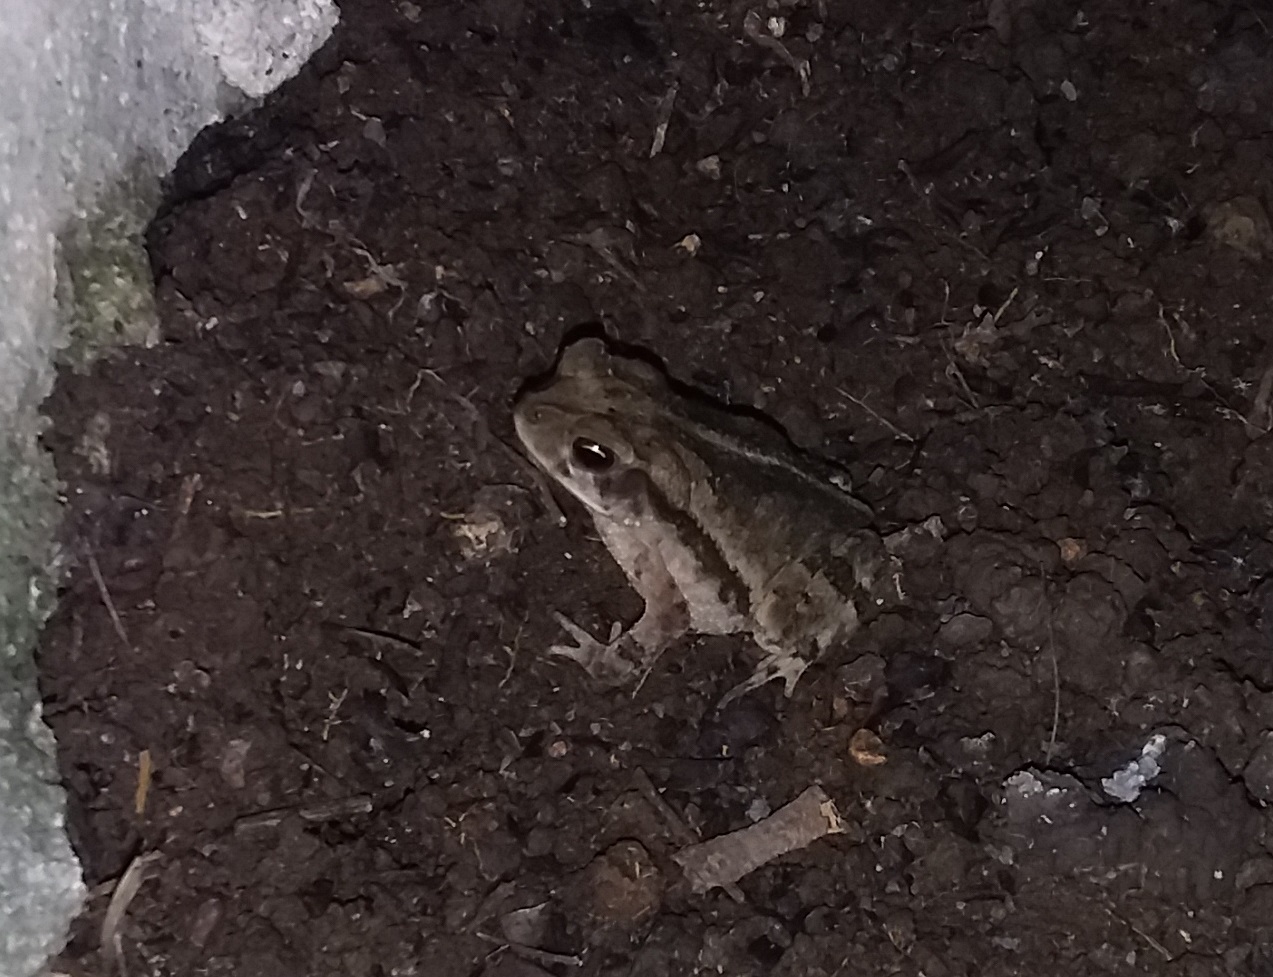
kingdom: Animalia
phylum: Chordata
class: Amphibia
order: Anura
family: Bufonidae
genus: Incilius
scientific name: Incilius nebulifer
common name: Gulf coast toad
